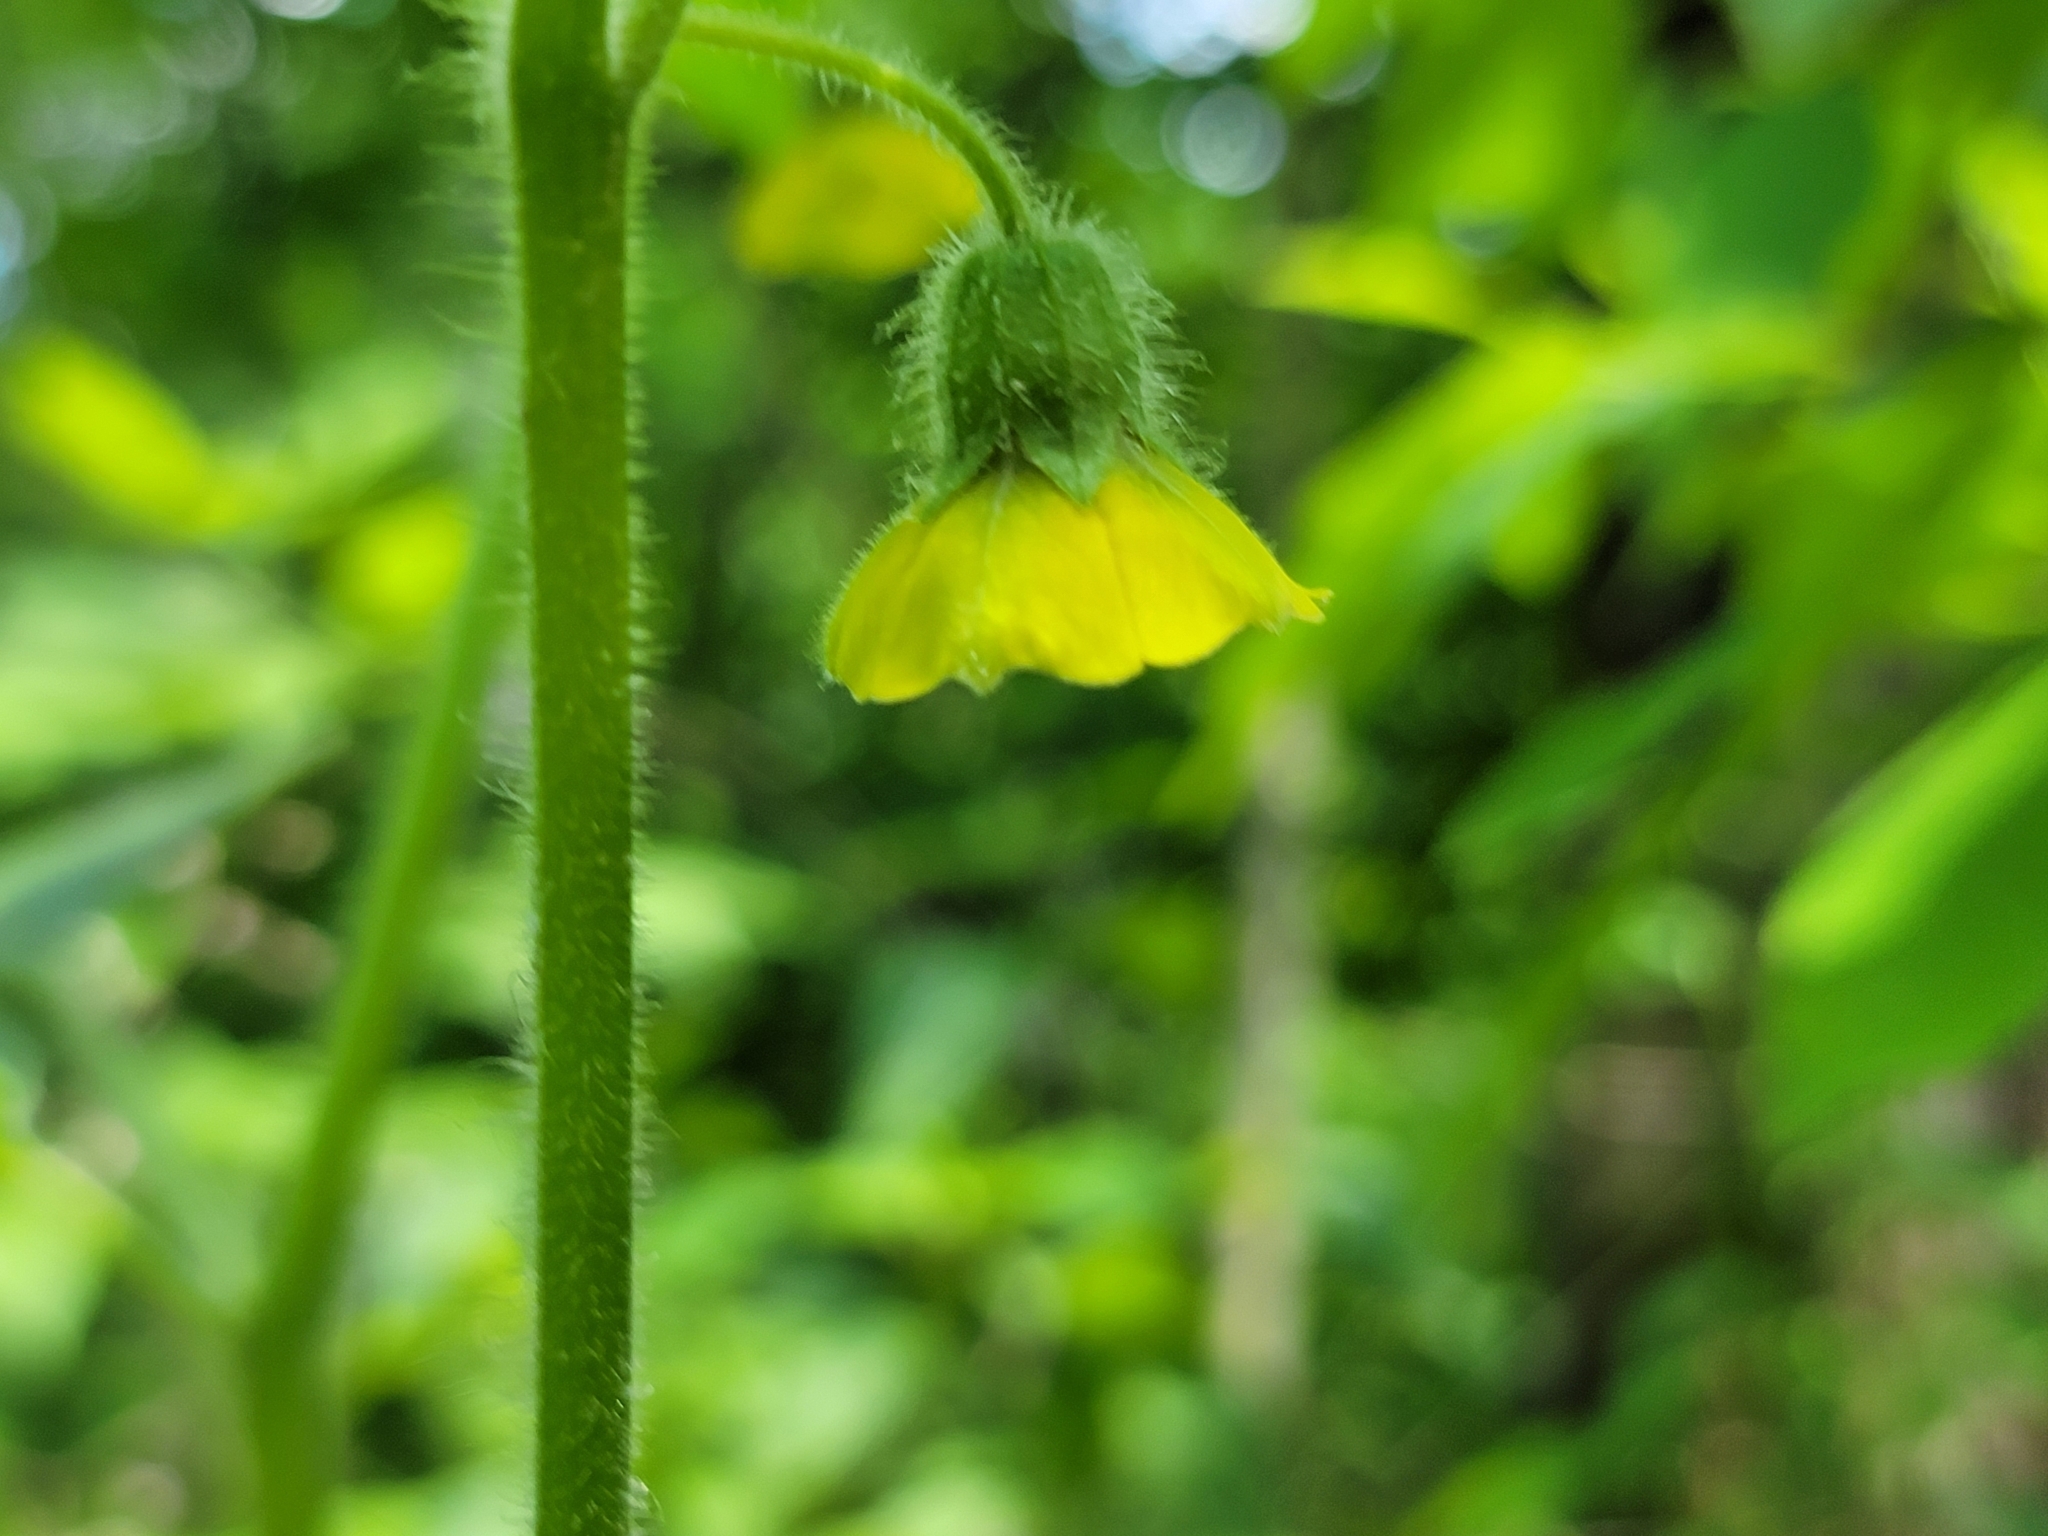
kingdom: Plantae
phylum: Tracheophyta
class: Magnoliopsida
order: Solanales
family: Solanaceae
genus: Physalis
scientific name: Physalis heterophylla
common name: Clammy ground-cherry
